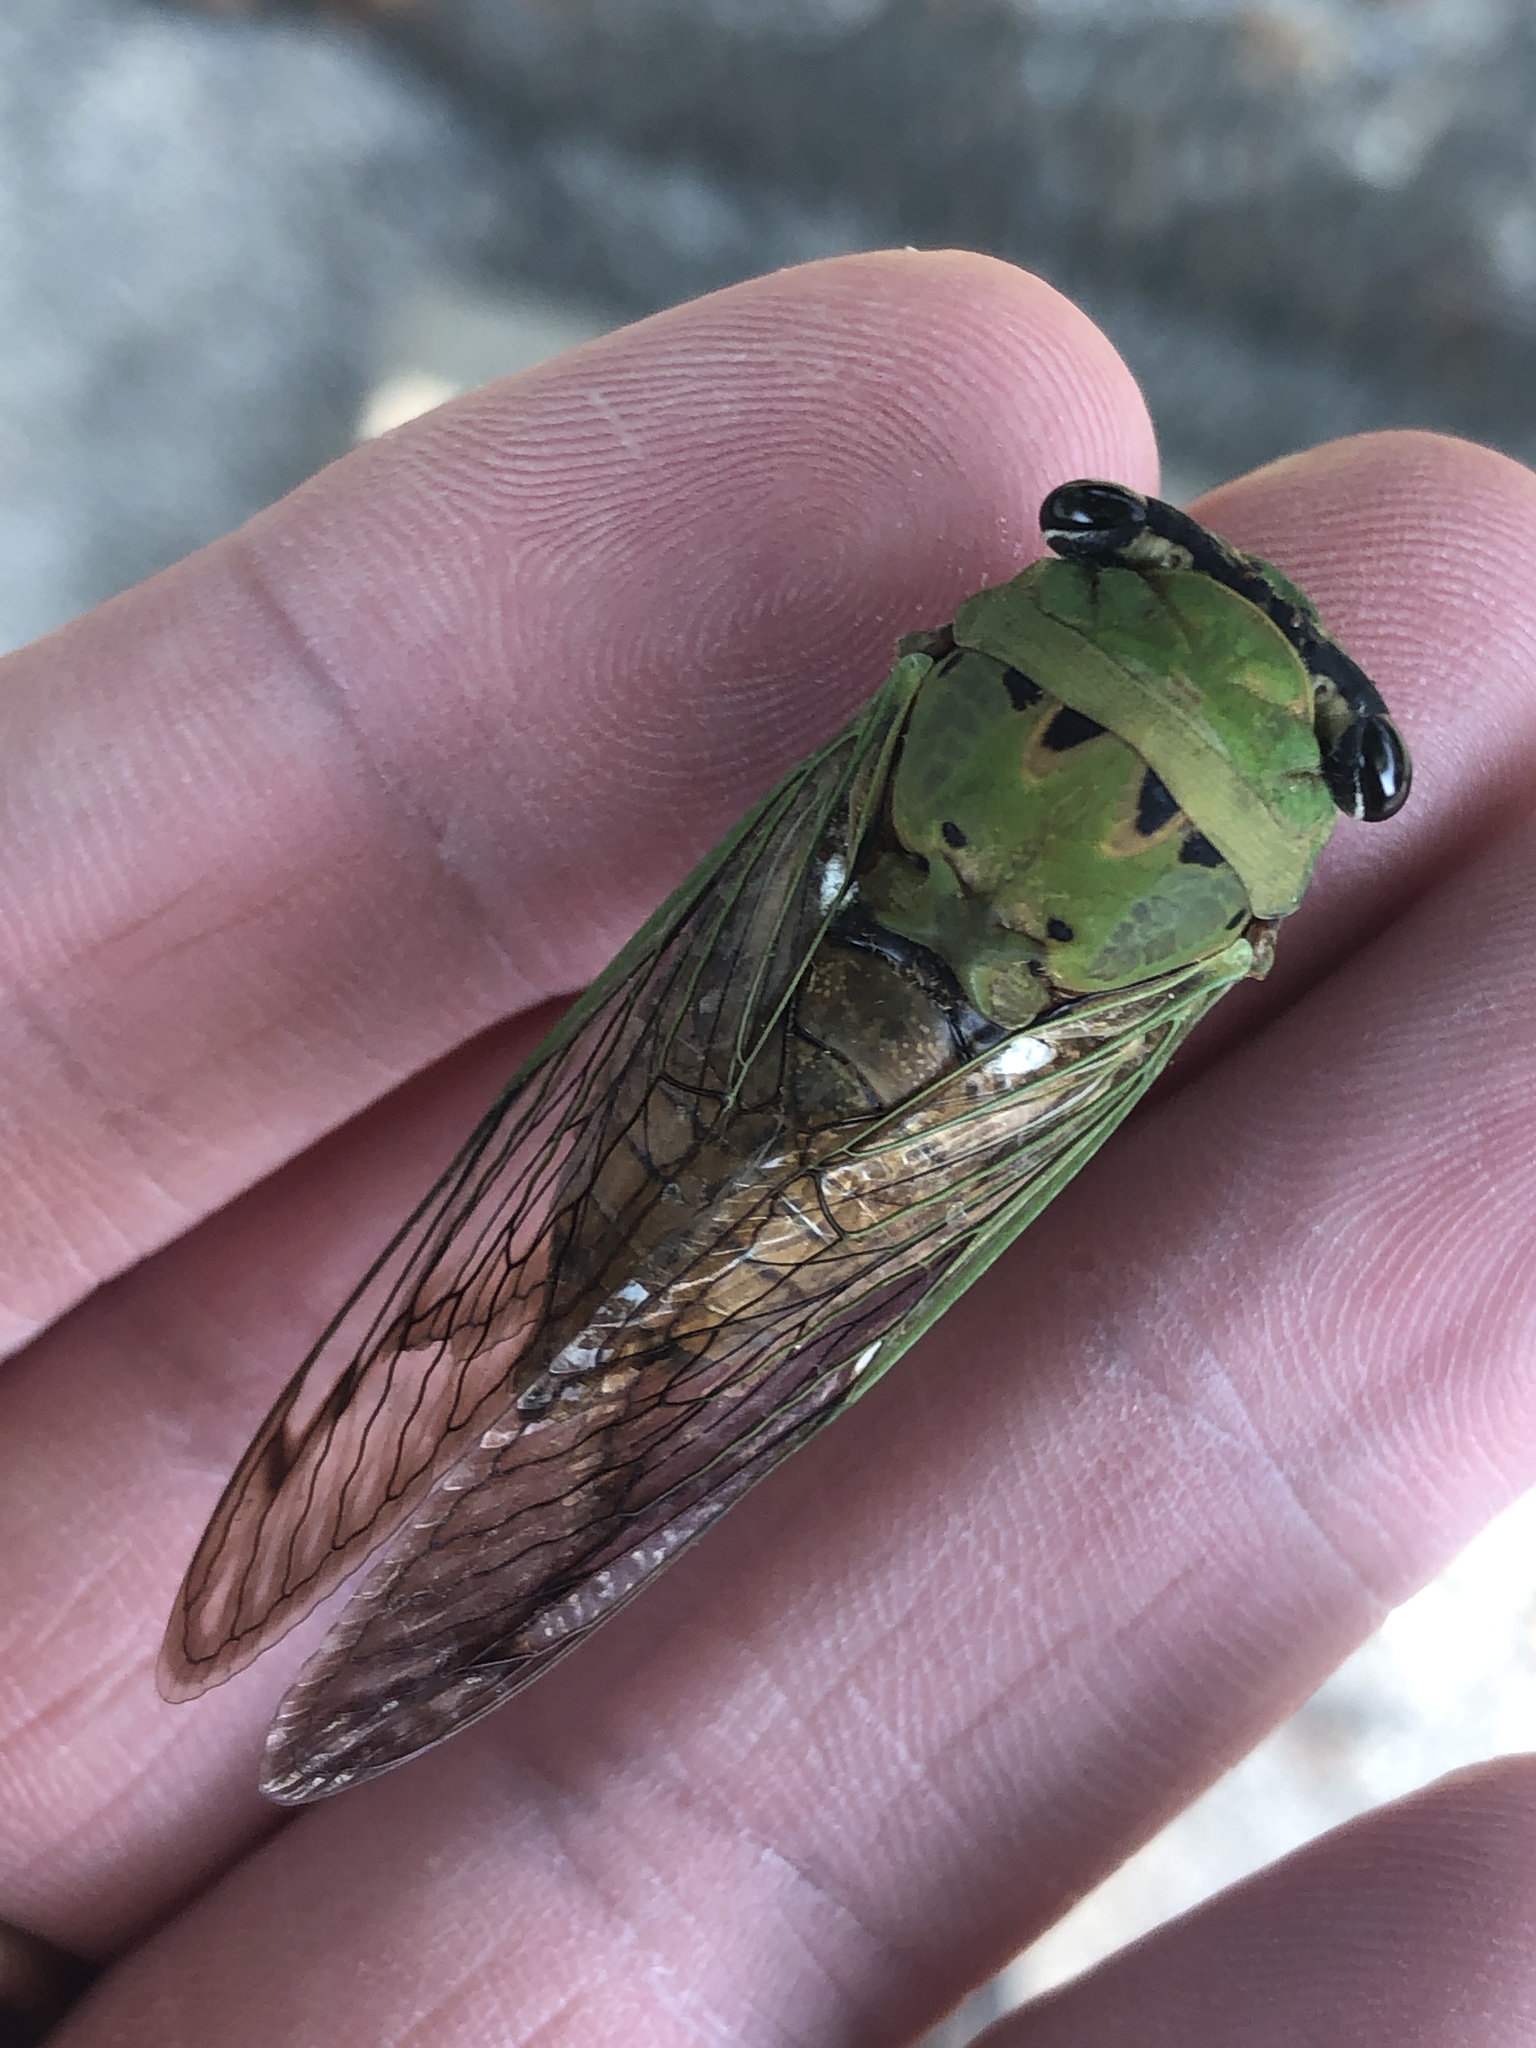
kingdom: Animalia
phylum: Arthropoda
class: Insecta
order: Hemiptera
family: Cicadidae
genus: Neotibicen
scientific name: Neotibicen superbus
